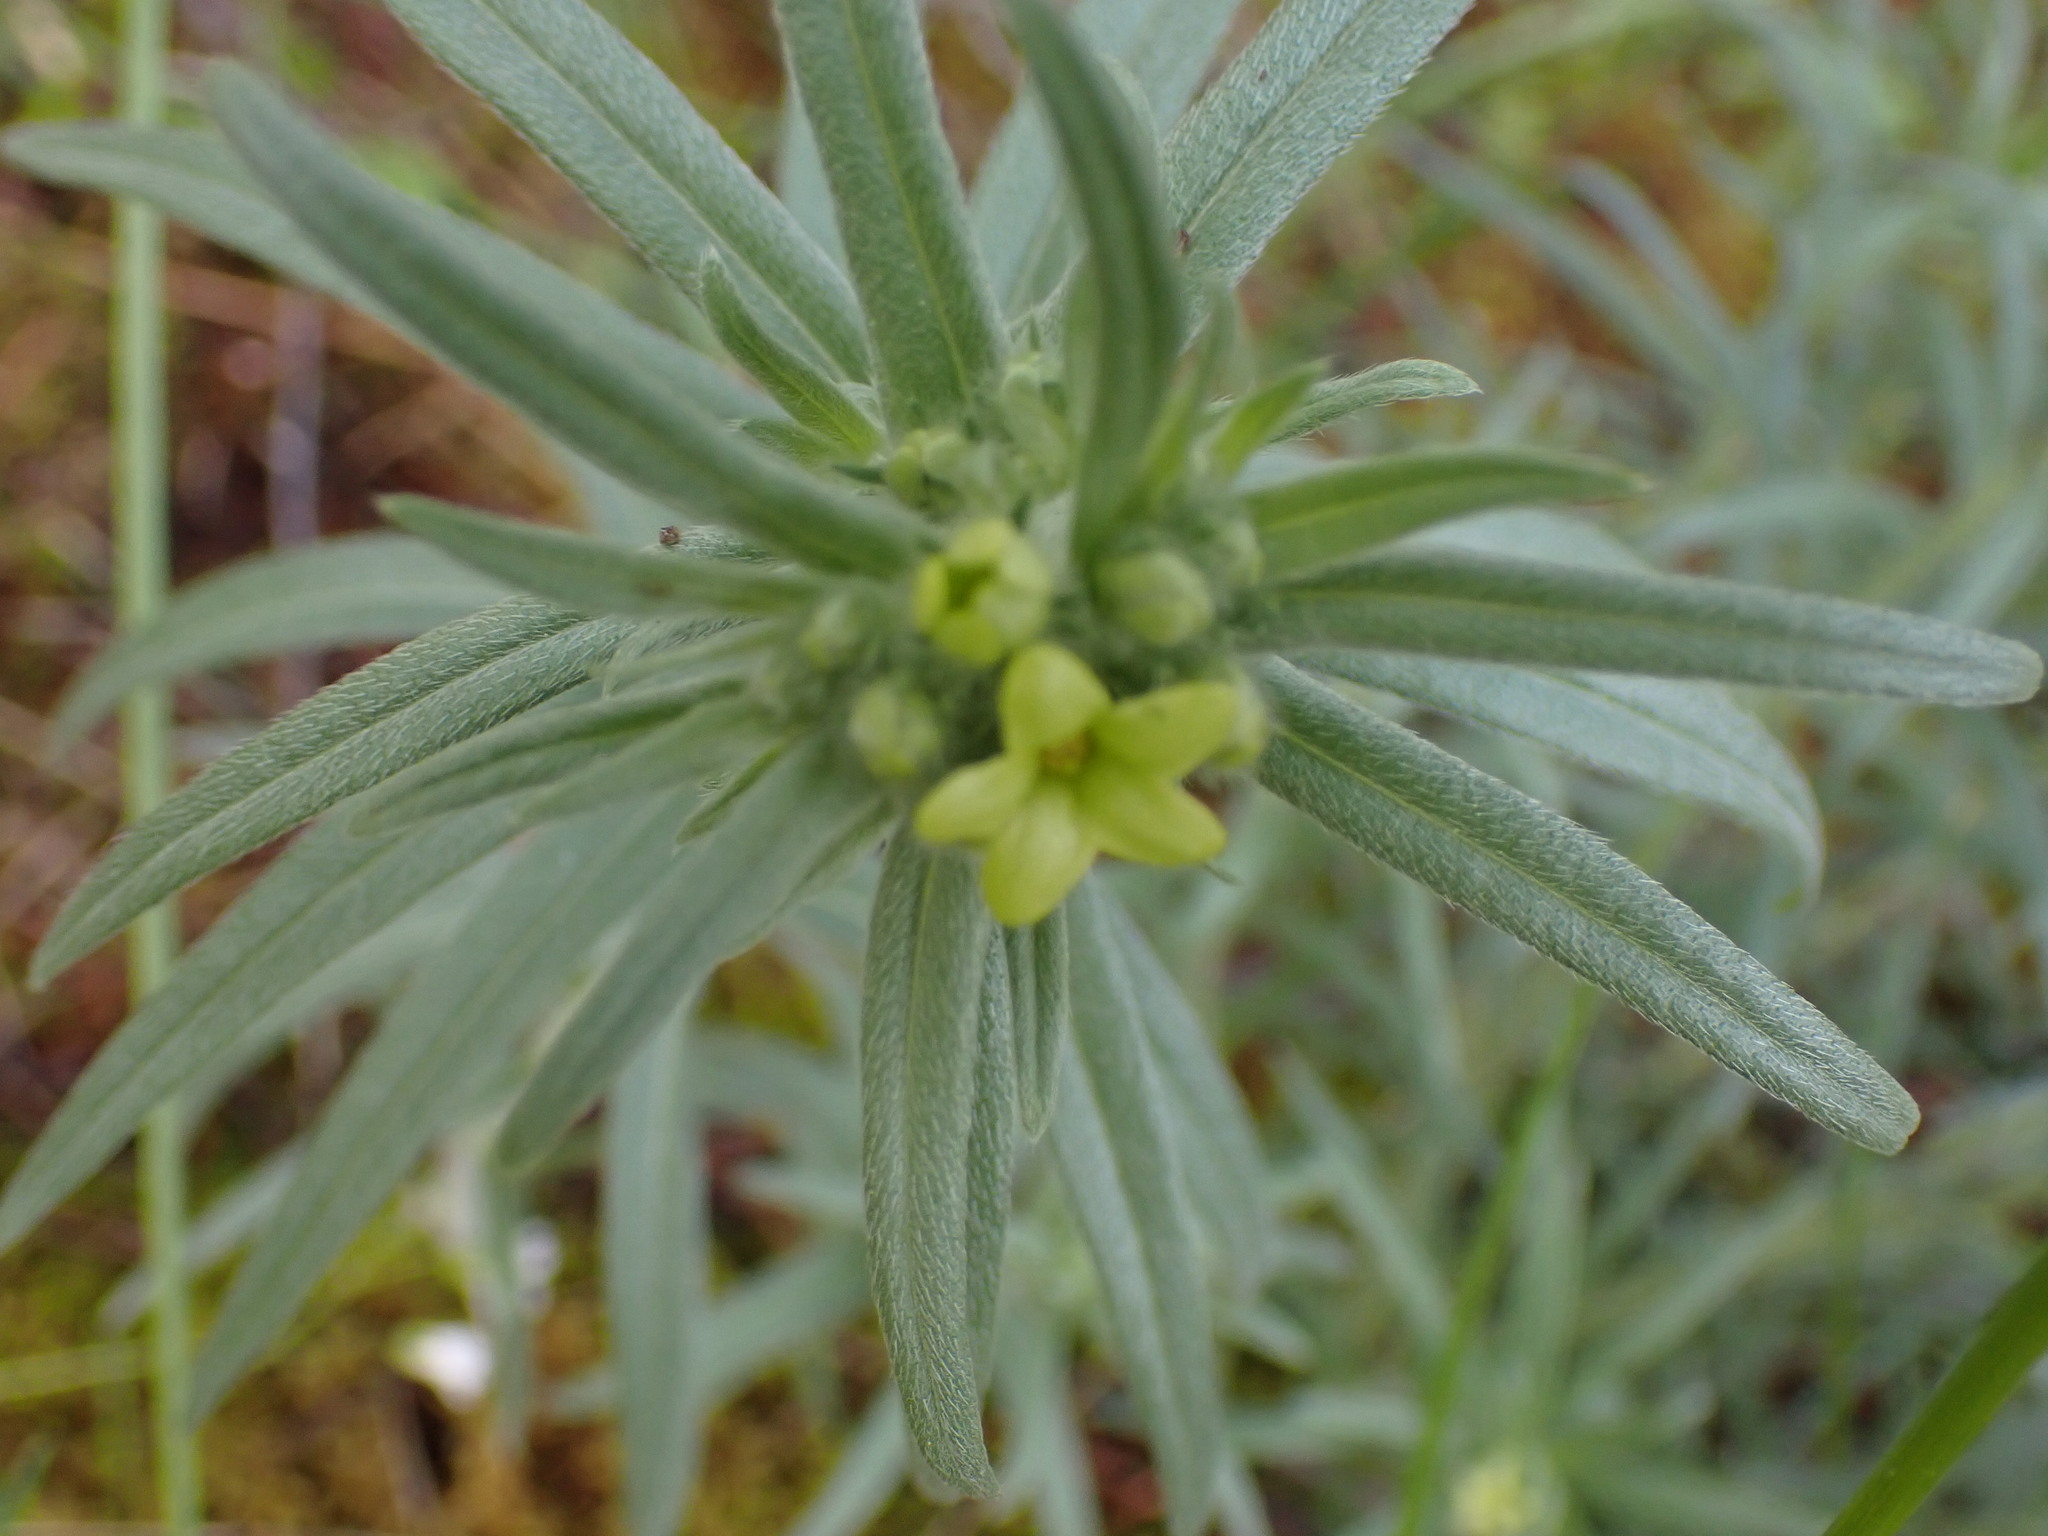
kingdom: Plantae
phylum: Tracheophyta
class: Magnoliopsida
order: Boraginales
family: Boraginaceae
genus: Lithospermum
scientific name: Lithospermum ruderale
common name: Western gromwell
